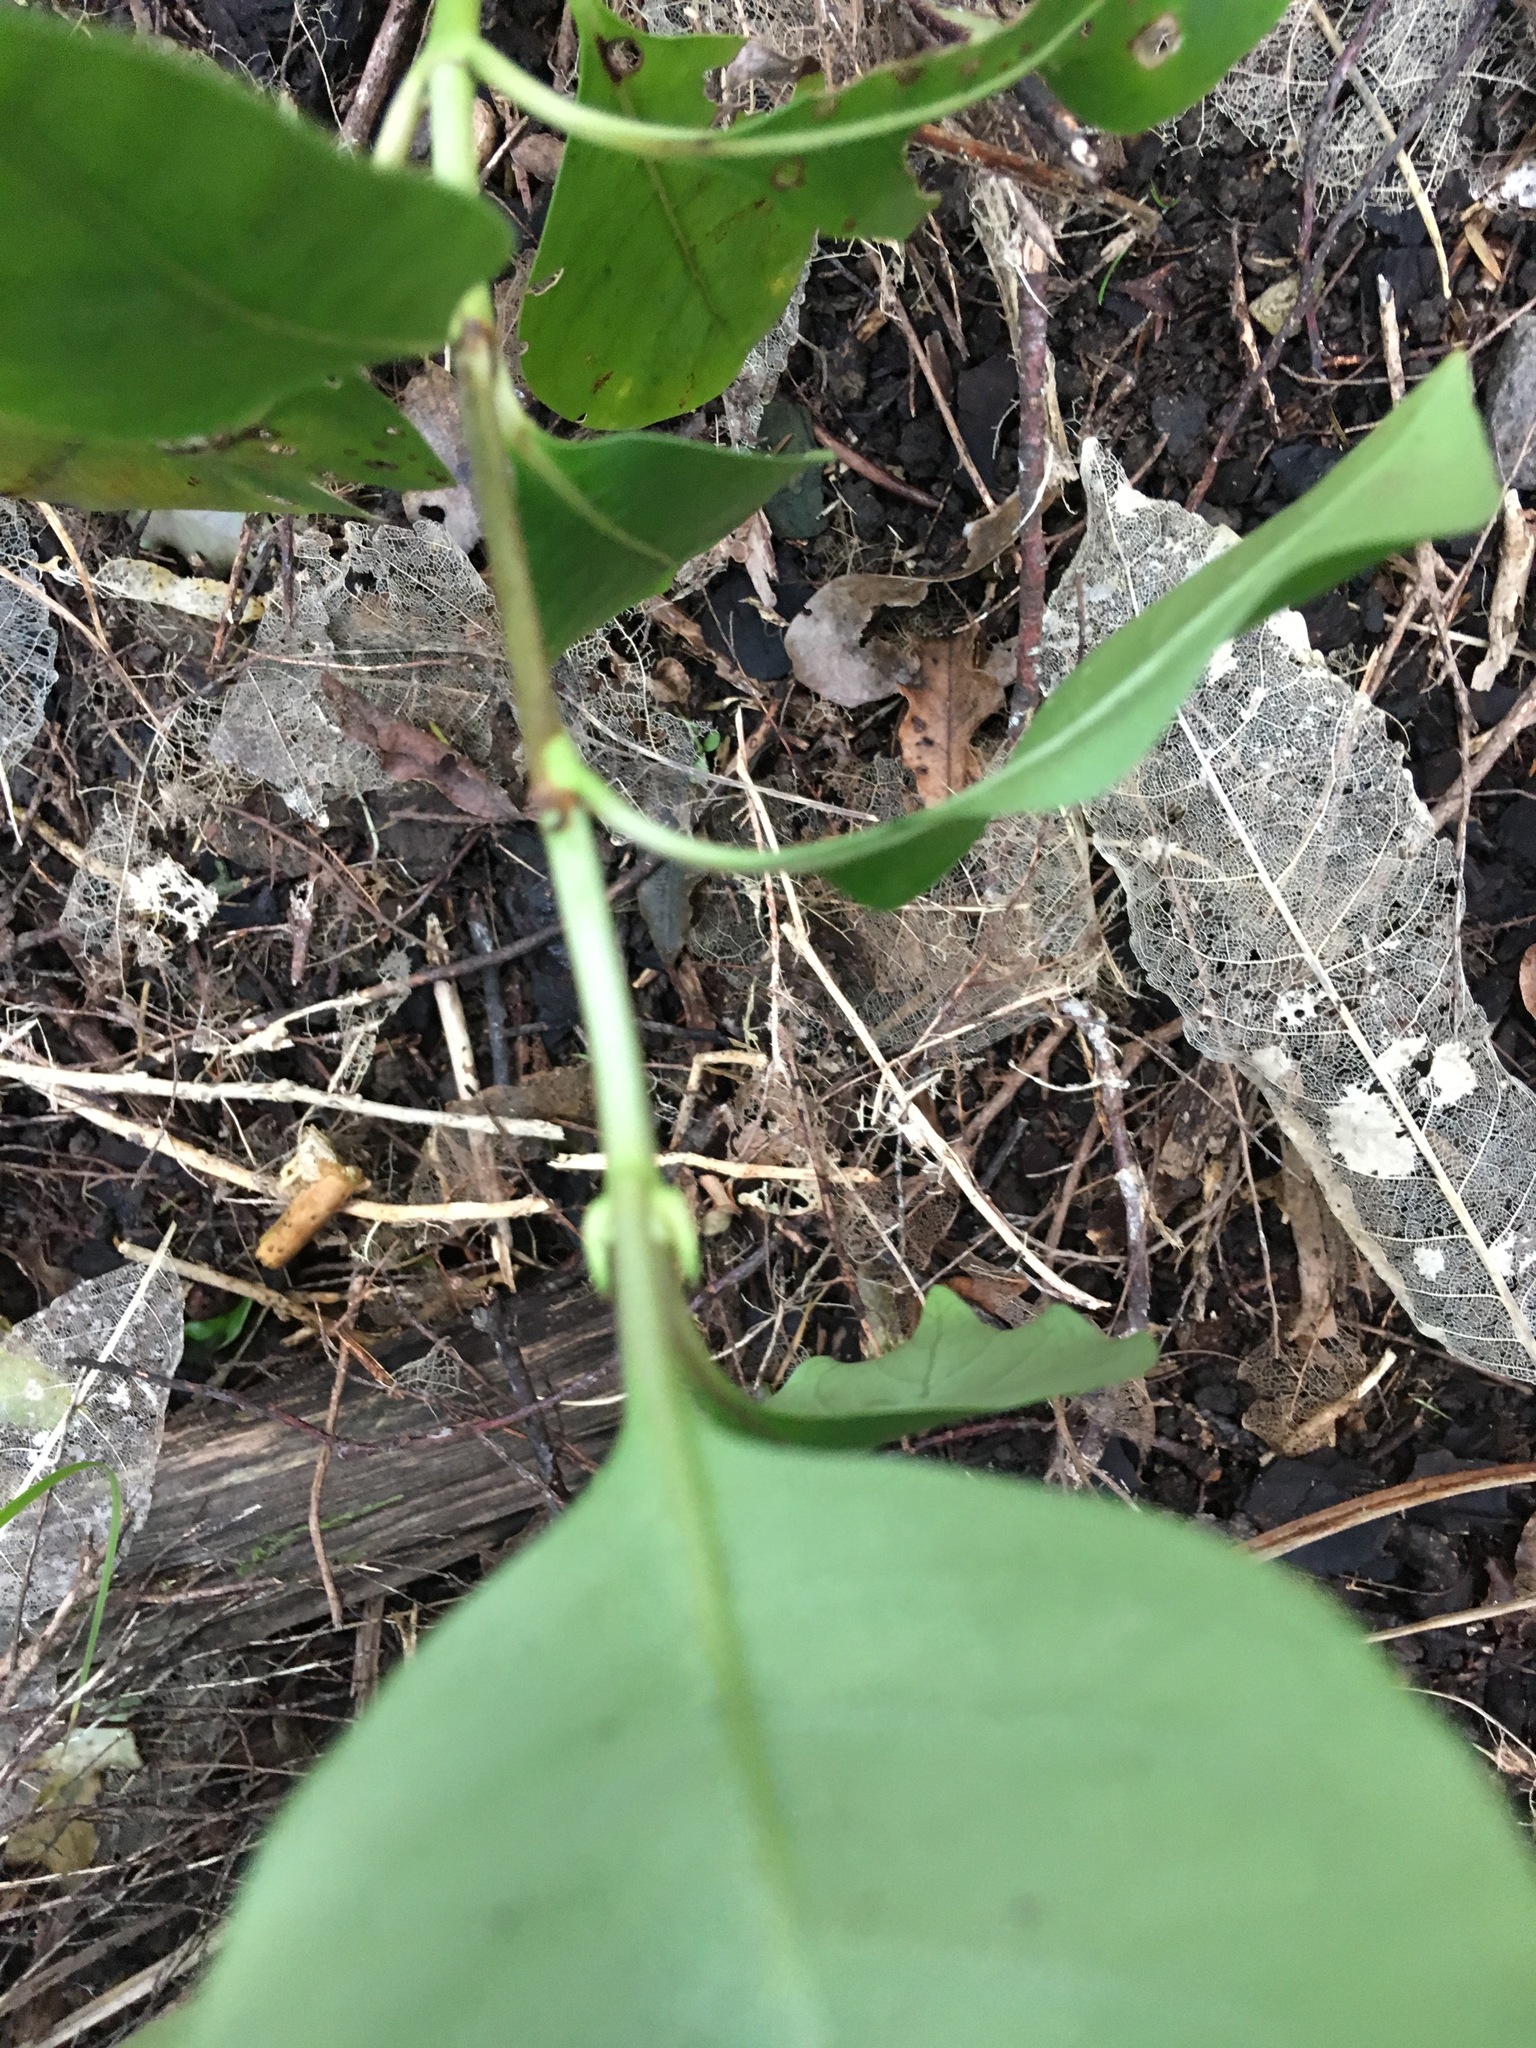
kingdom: Plantae
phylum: Tracheophyta
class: Magnoliopsida
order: Gentianales
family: Rubiaceae
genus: Coprosma
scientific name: Coprosma macrocarpa
